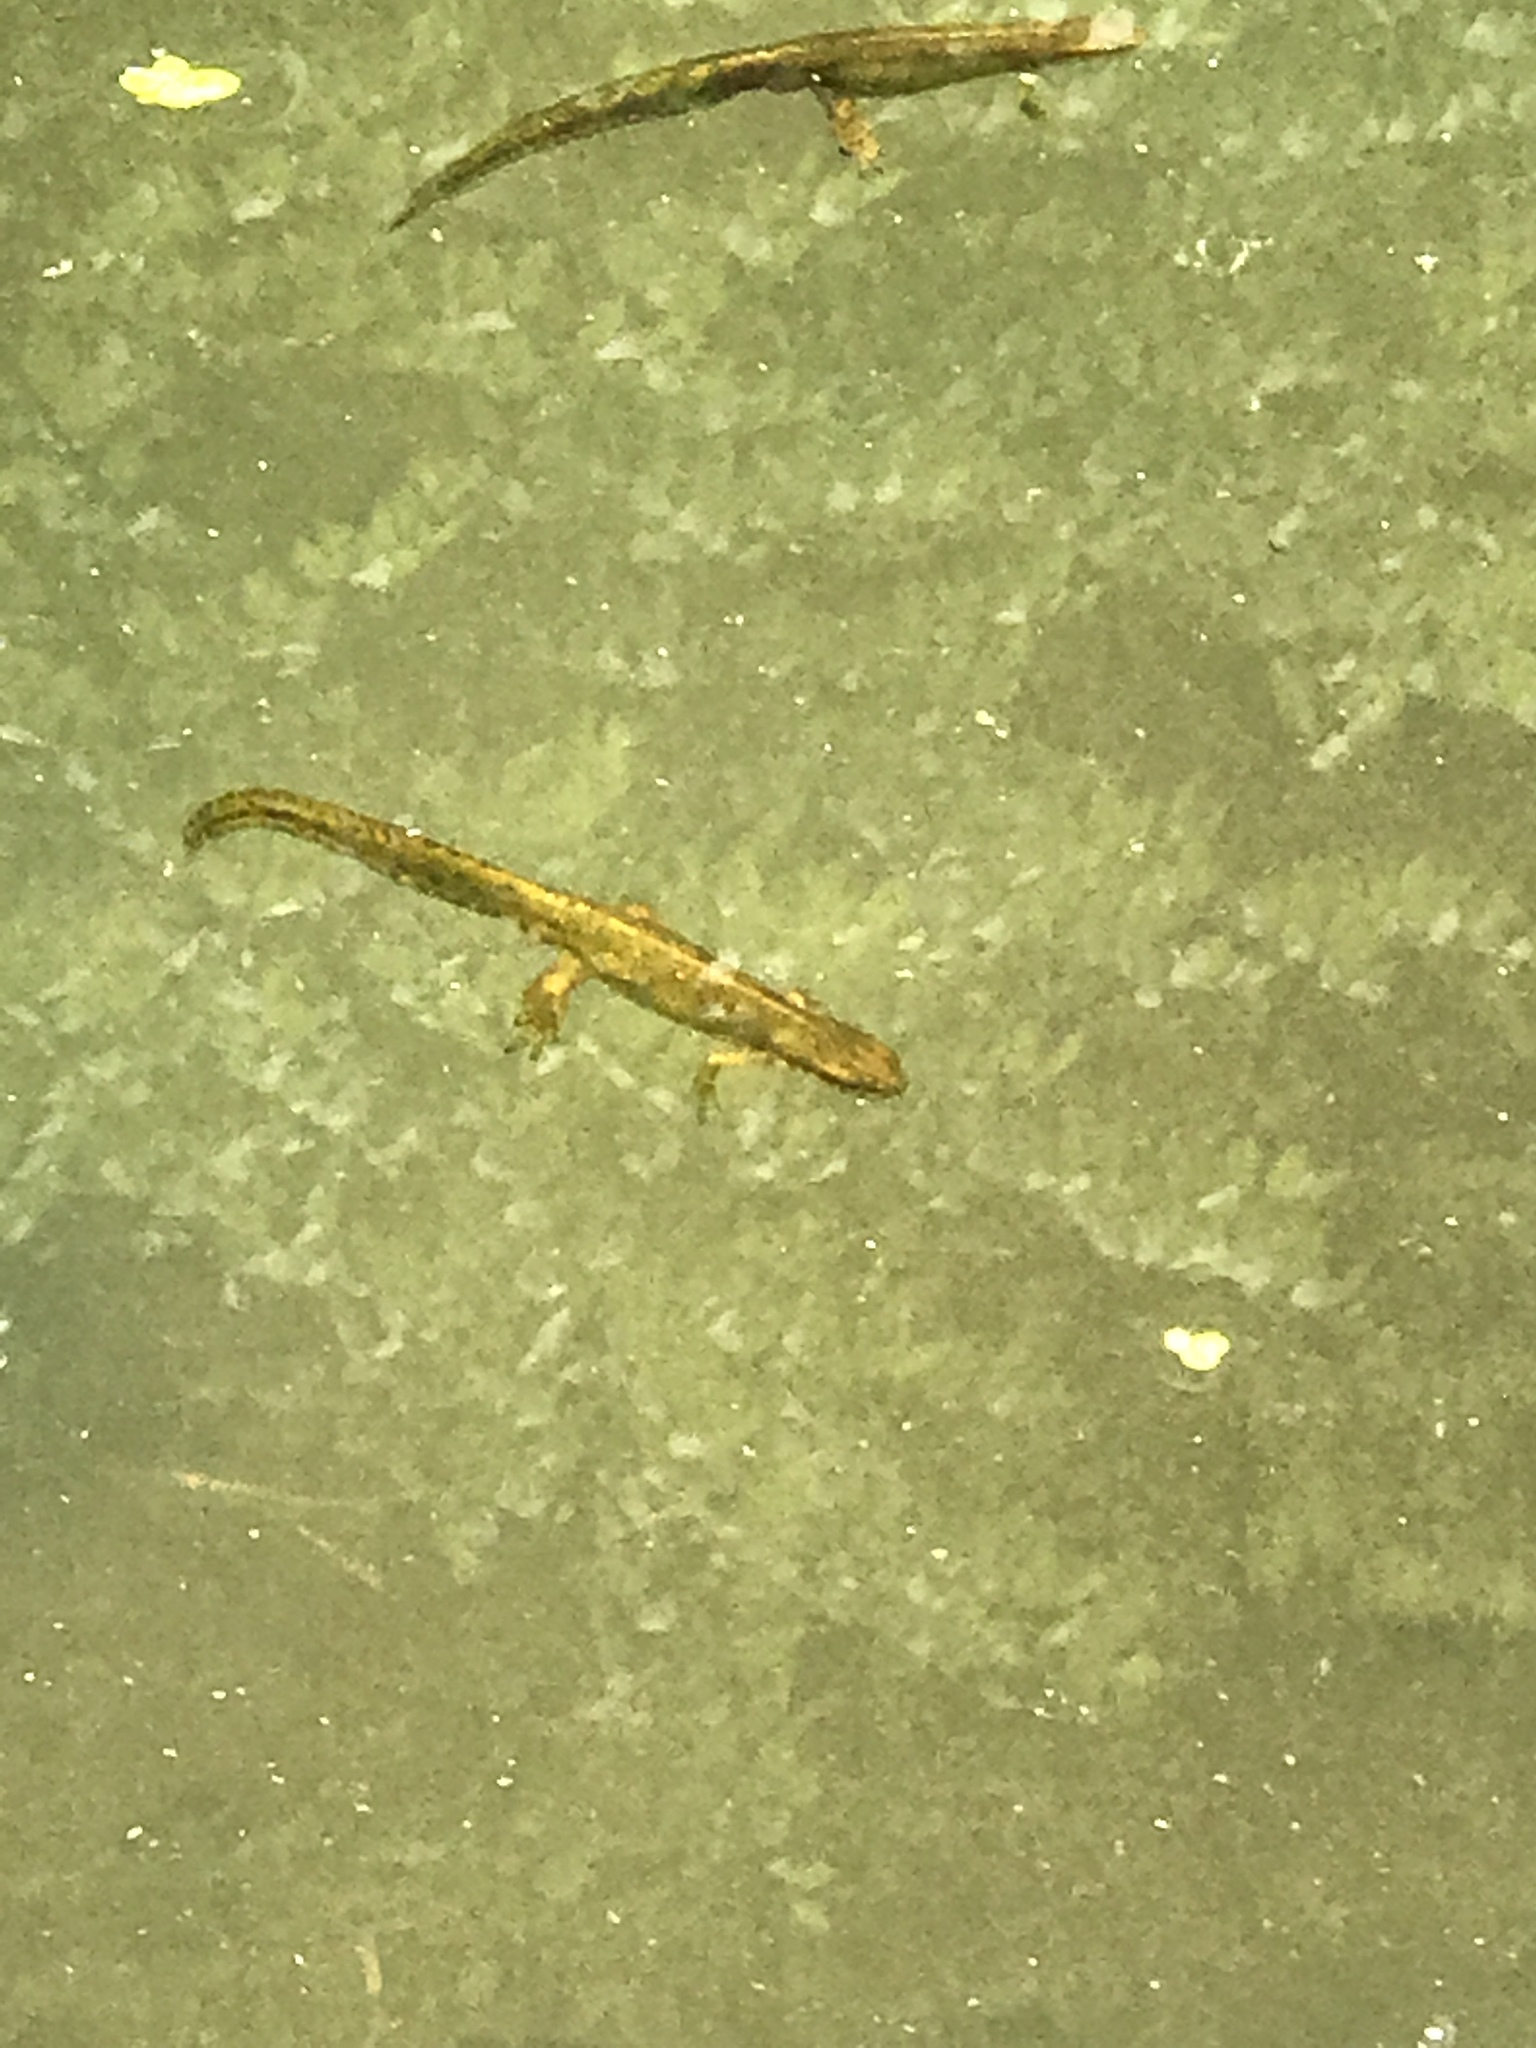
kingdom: Animalia
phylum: Chordata
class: Amphibia
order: Caudata
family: Salamandridae
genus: Notophthalmus
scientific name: Notophthalmus viridescens
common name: Eastern newt
